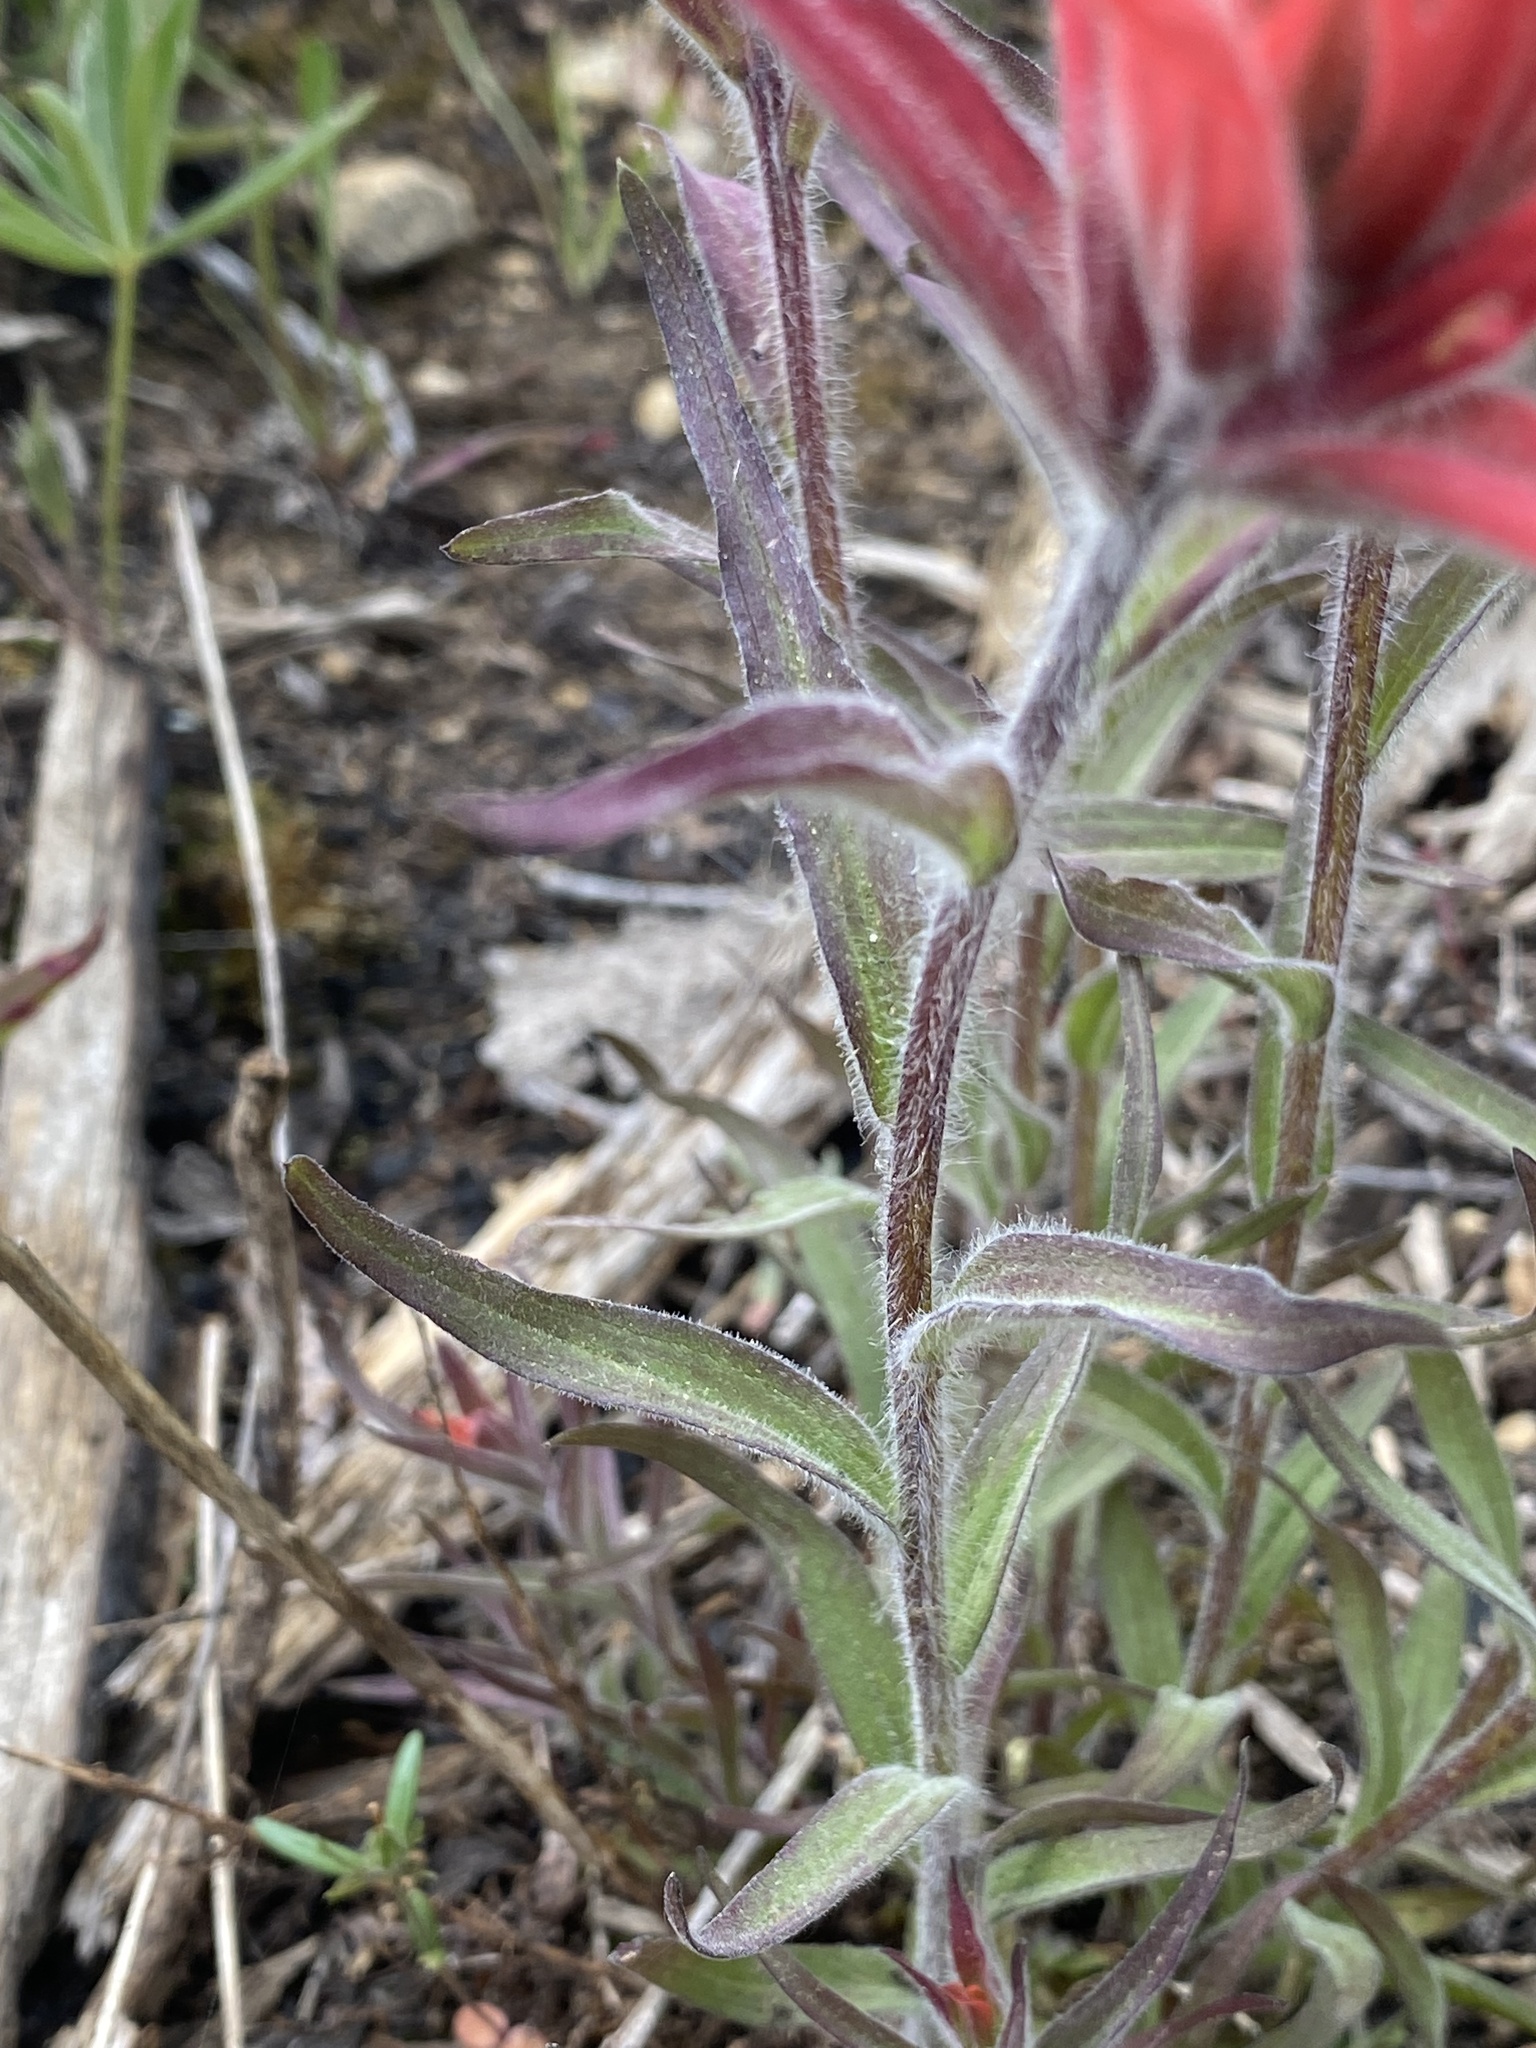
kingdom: Plantae
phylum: Tracheophyta
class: Magnoliopsida
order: Lamiales
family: Orobanchaceae
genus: Castilleja
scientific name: Castilleja miniata
